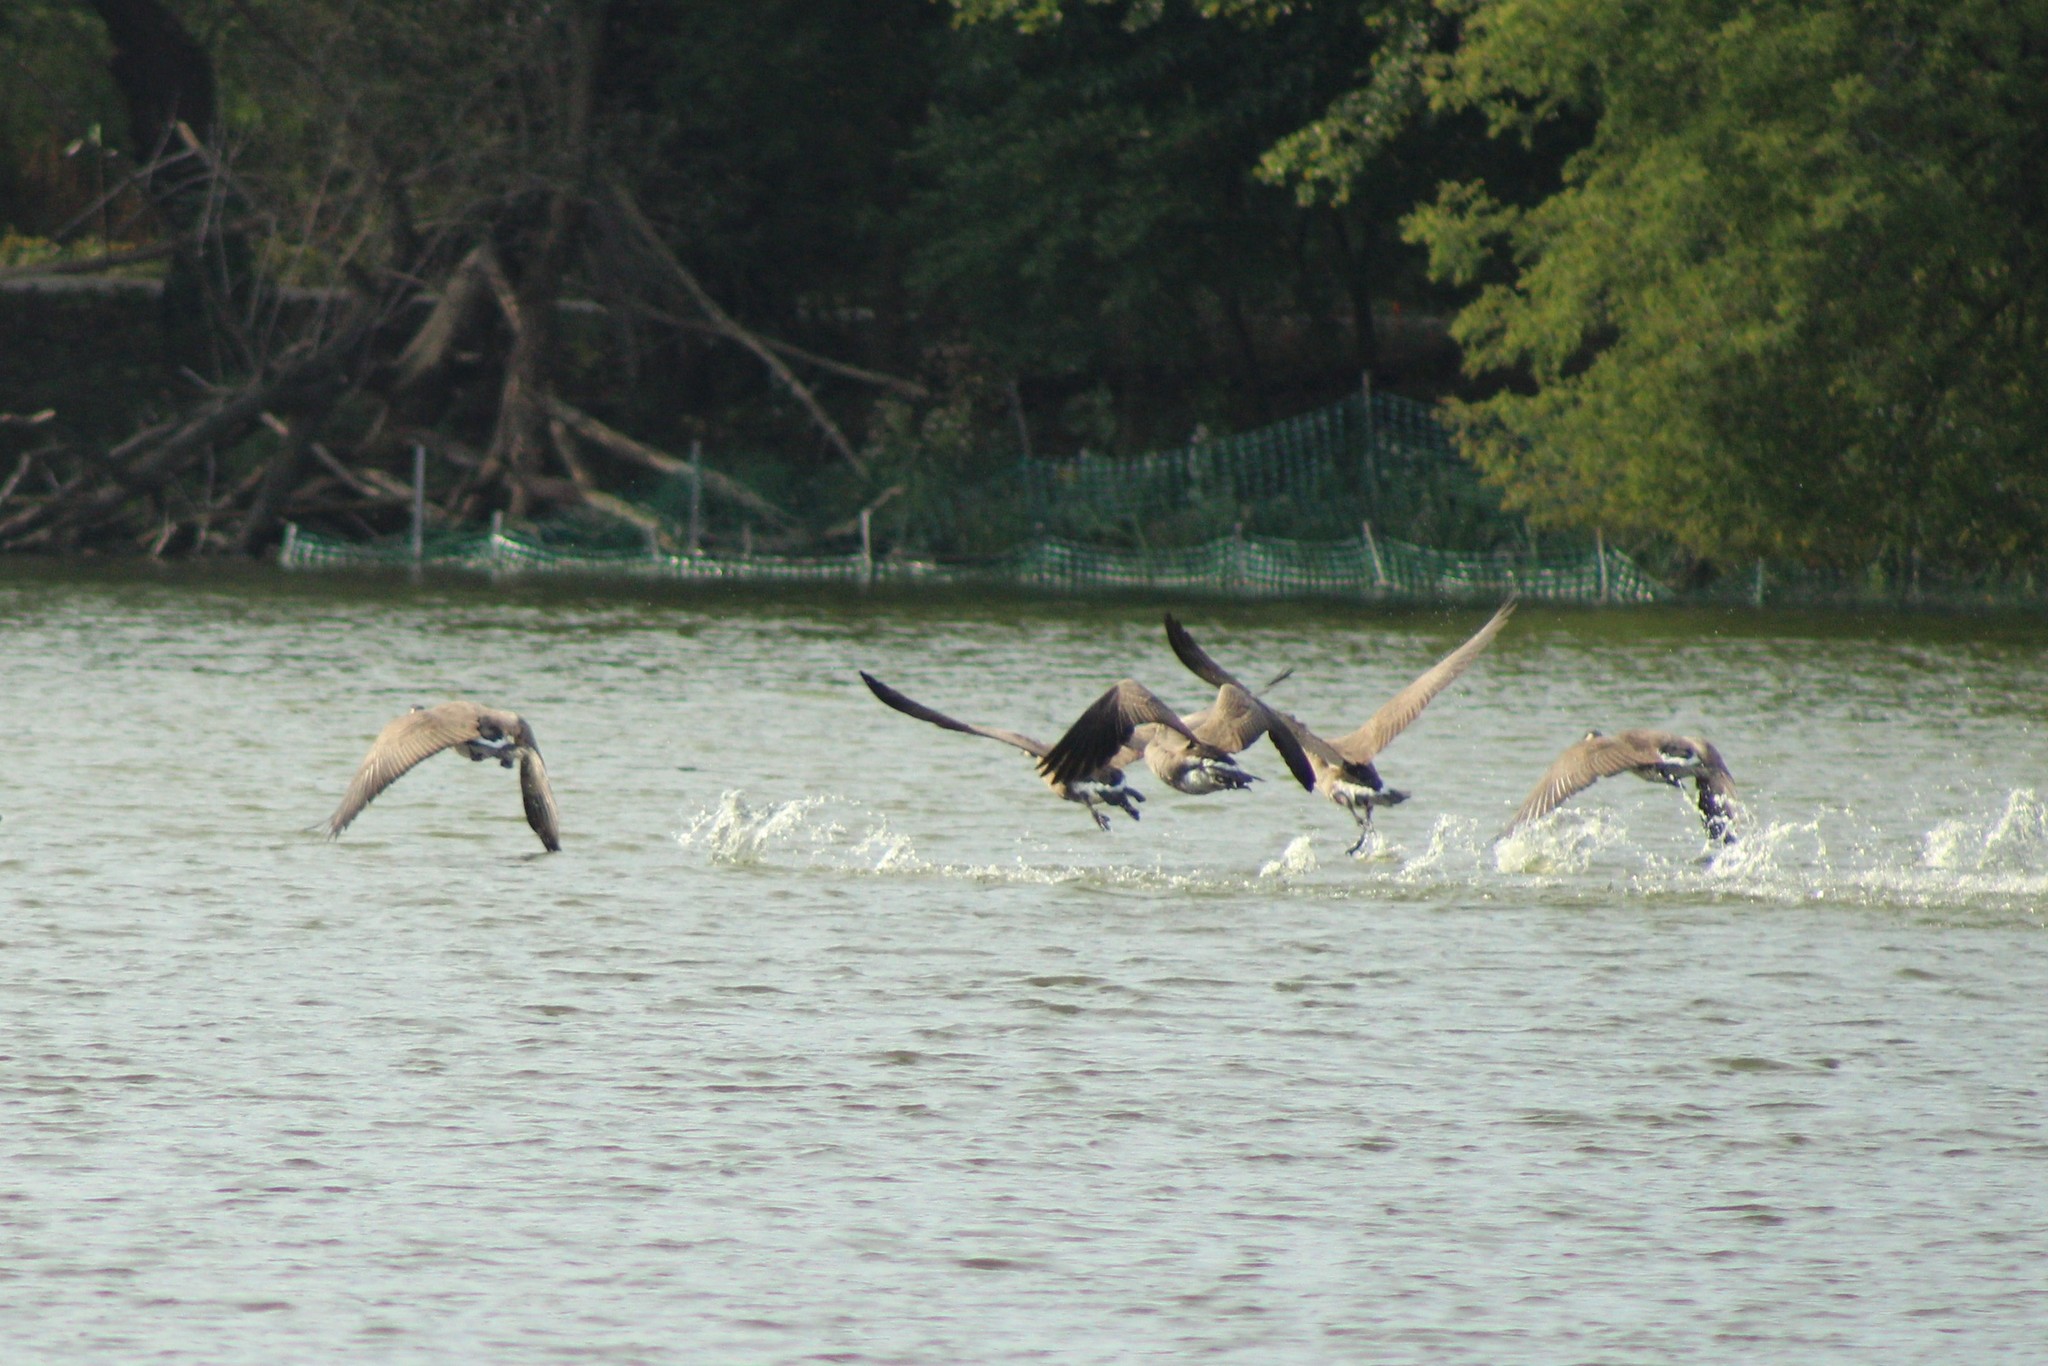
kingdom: Animalia
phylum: Chordata
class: Aves
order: Anseriformes
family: Anatidae
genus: Branta
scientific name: Branta canadensis
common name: Canada goose
